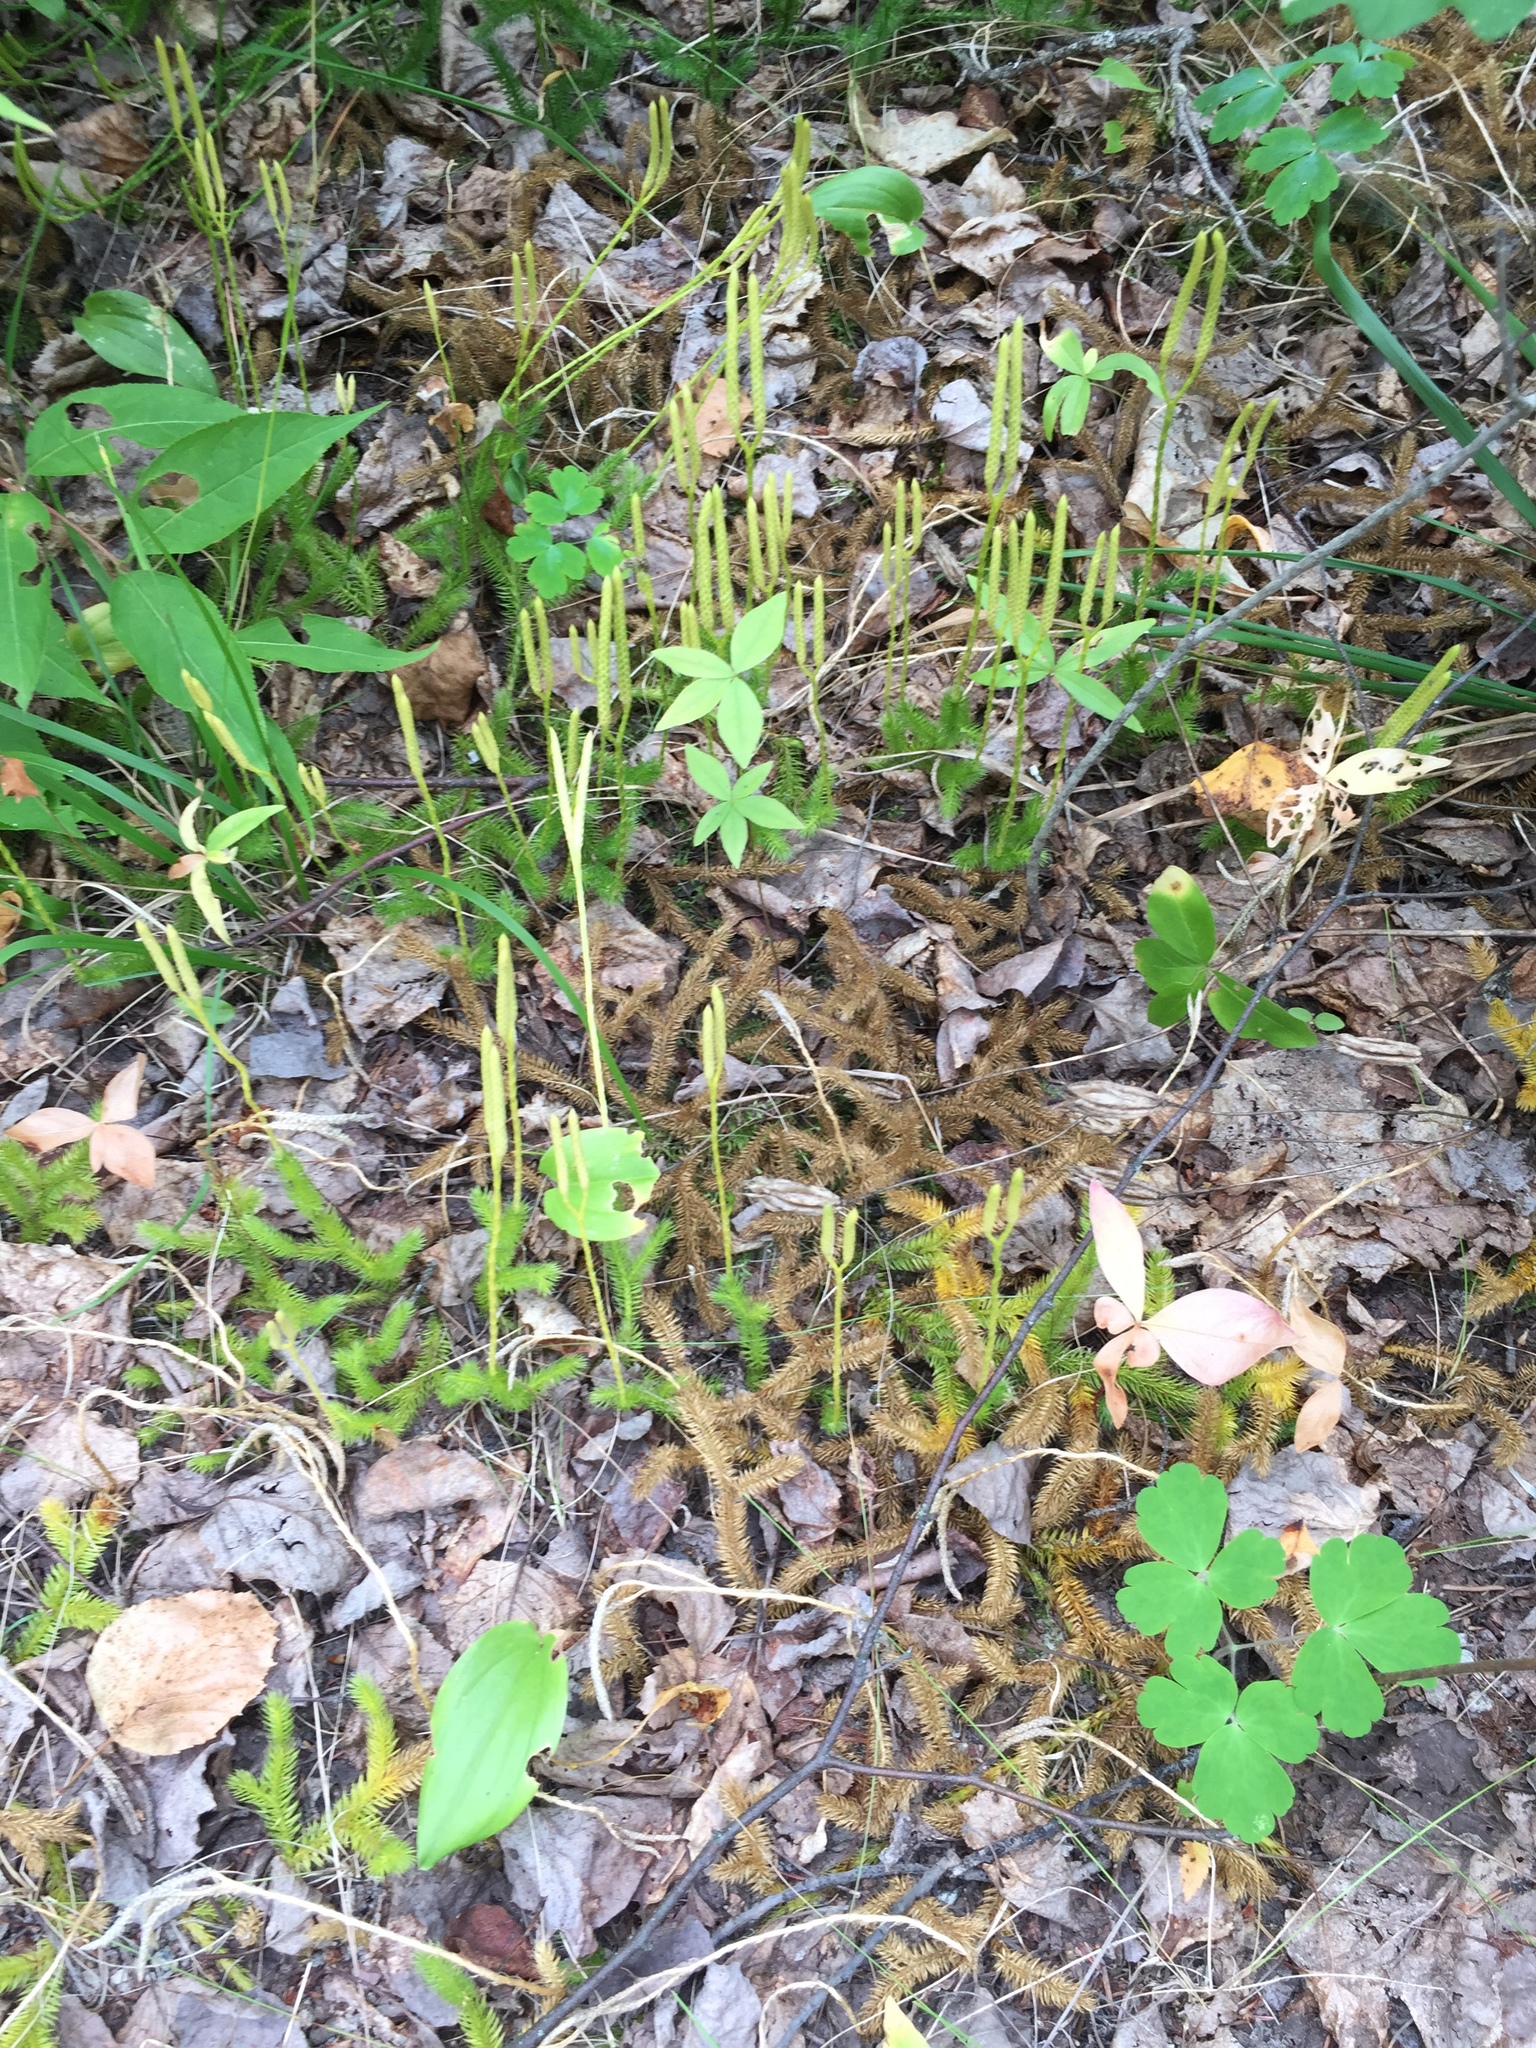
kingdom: Plantae
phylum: Tracheophyta
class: Lycopodiopsida
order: Lycopodiales
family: Lycopodiaceae
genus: Lycopodium
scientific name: Lycopodium clavatum
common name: Stag's-horn clubmoss
